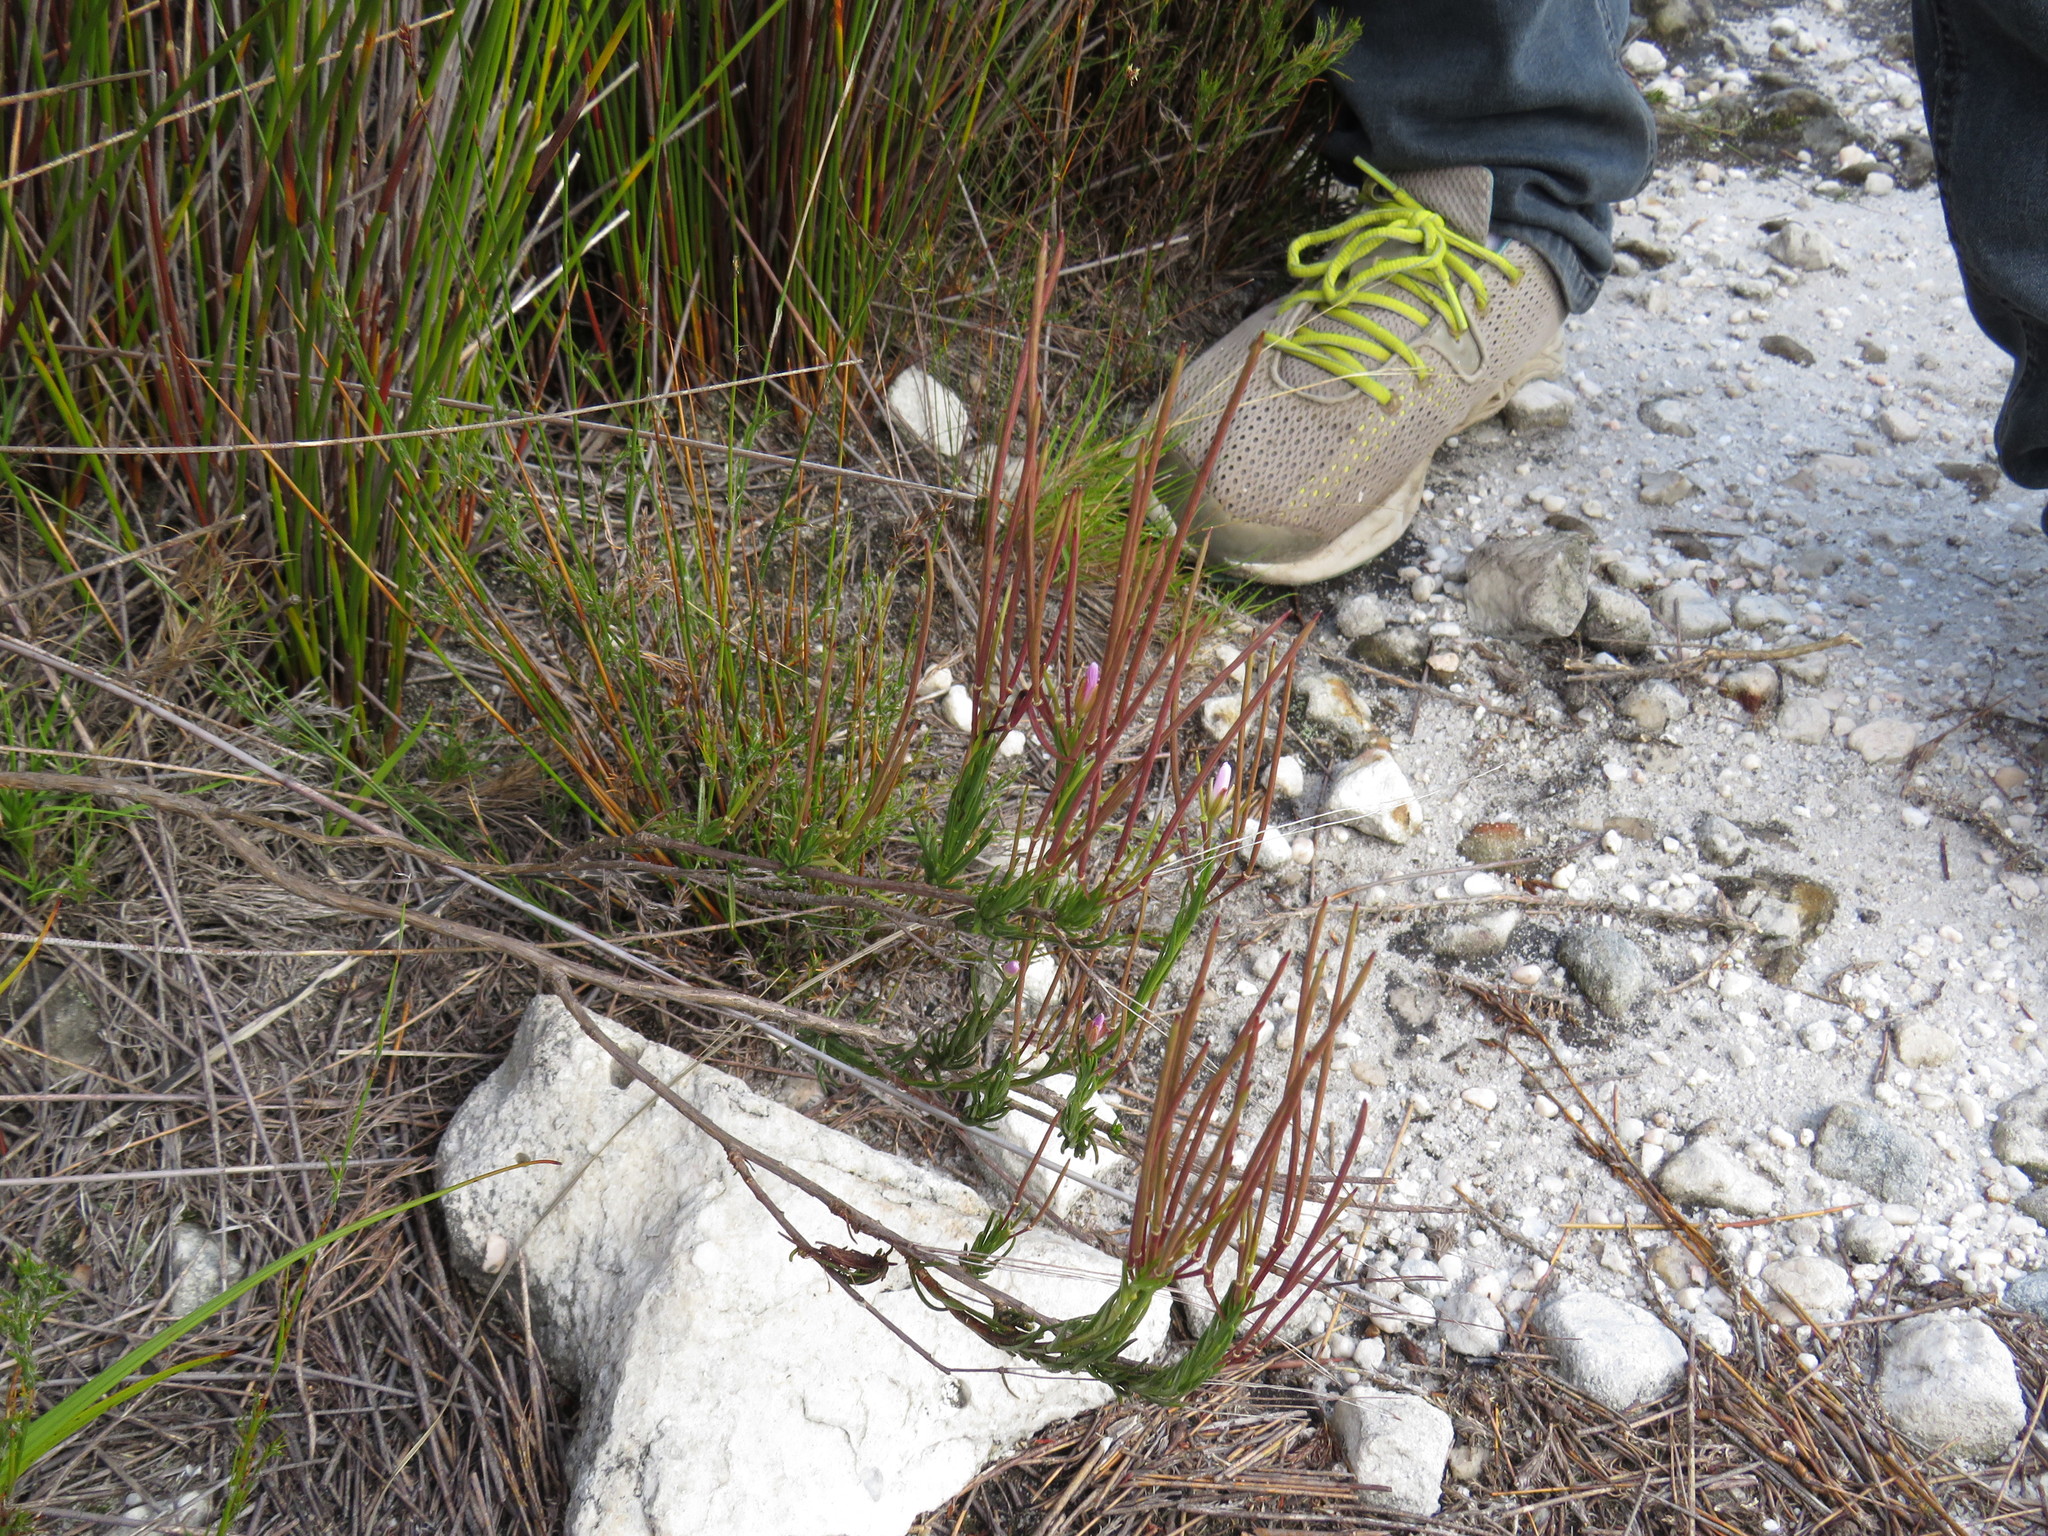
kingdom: Plantae
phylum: Tracheophyta
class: Magnoliopsida
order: Brassicales
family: Brassicaceae
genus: Heliophila
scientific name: Heliophila scoparia
